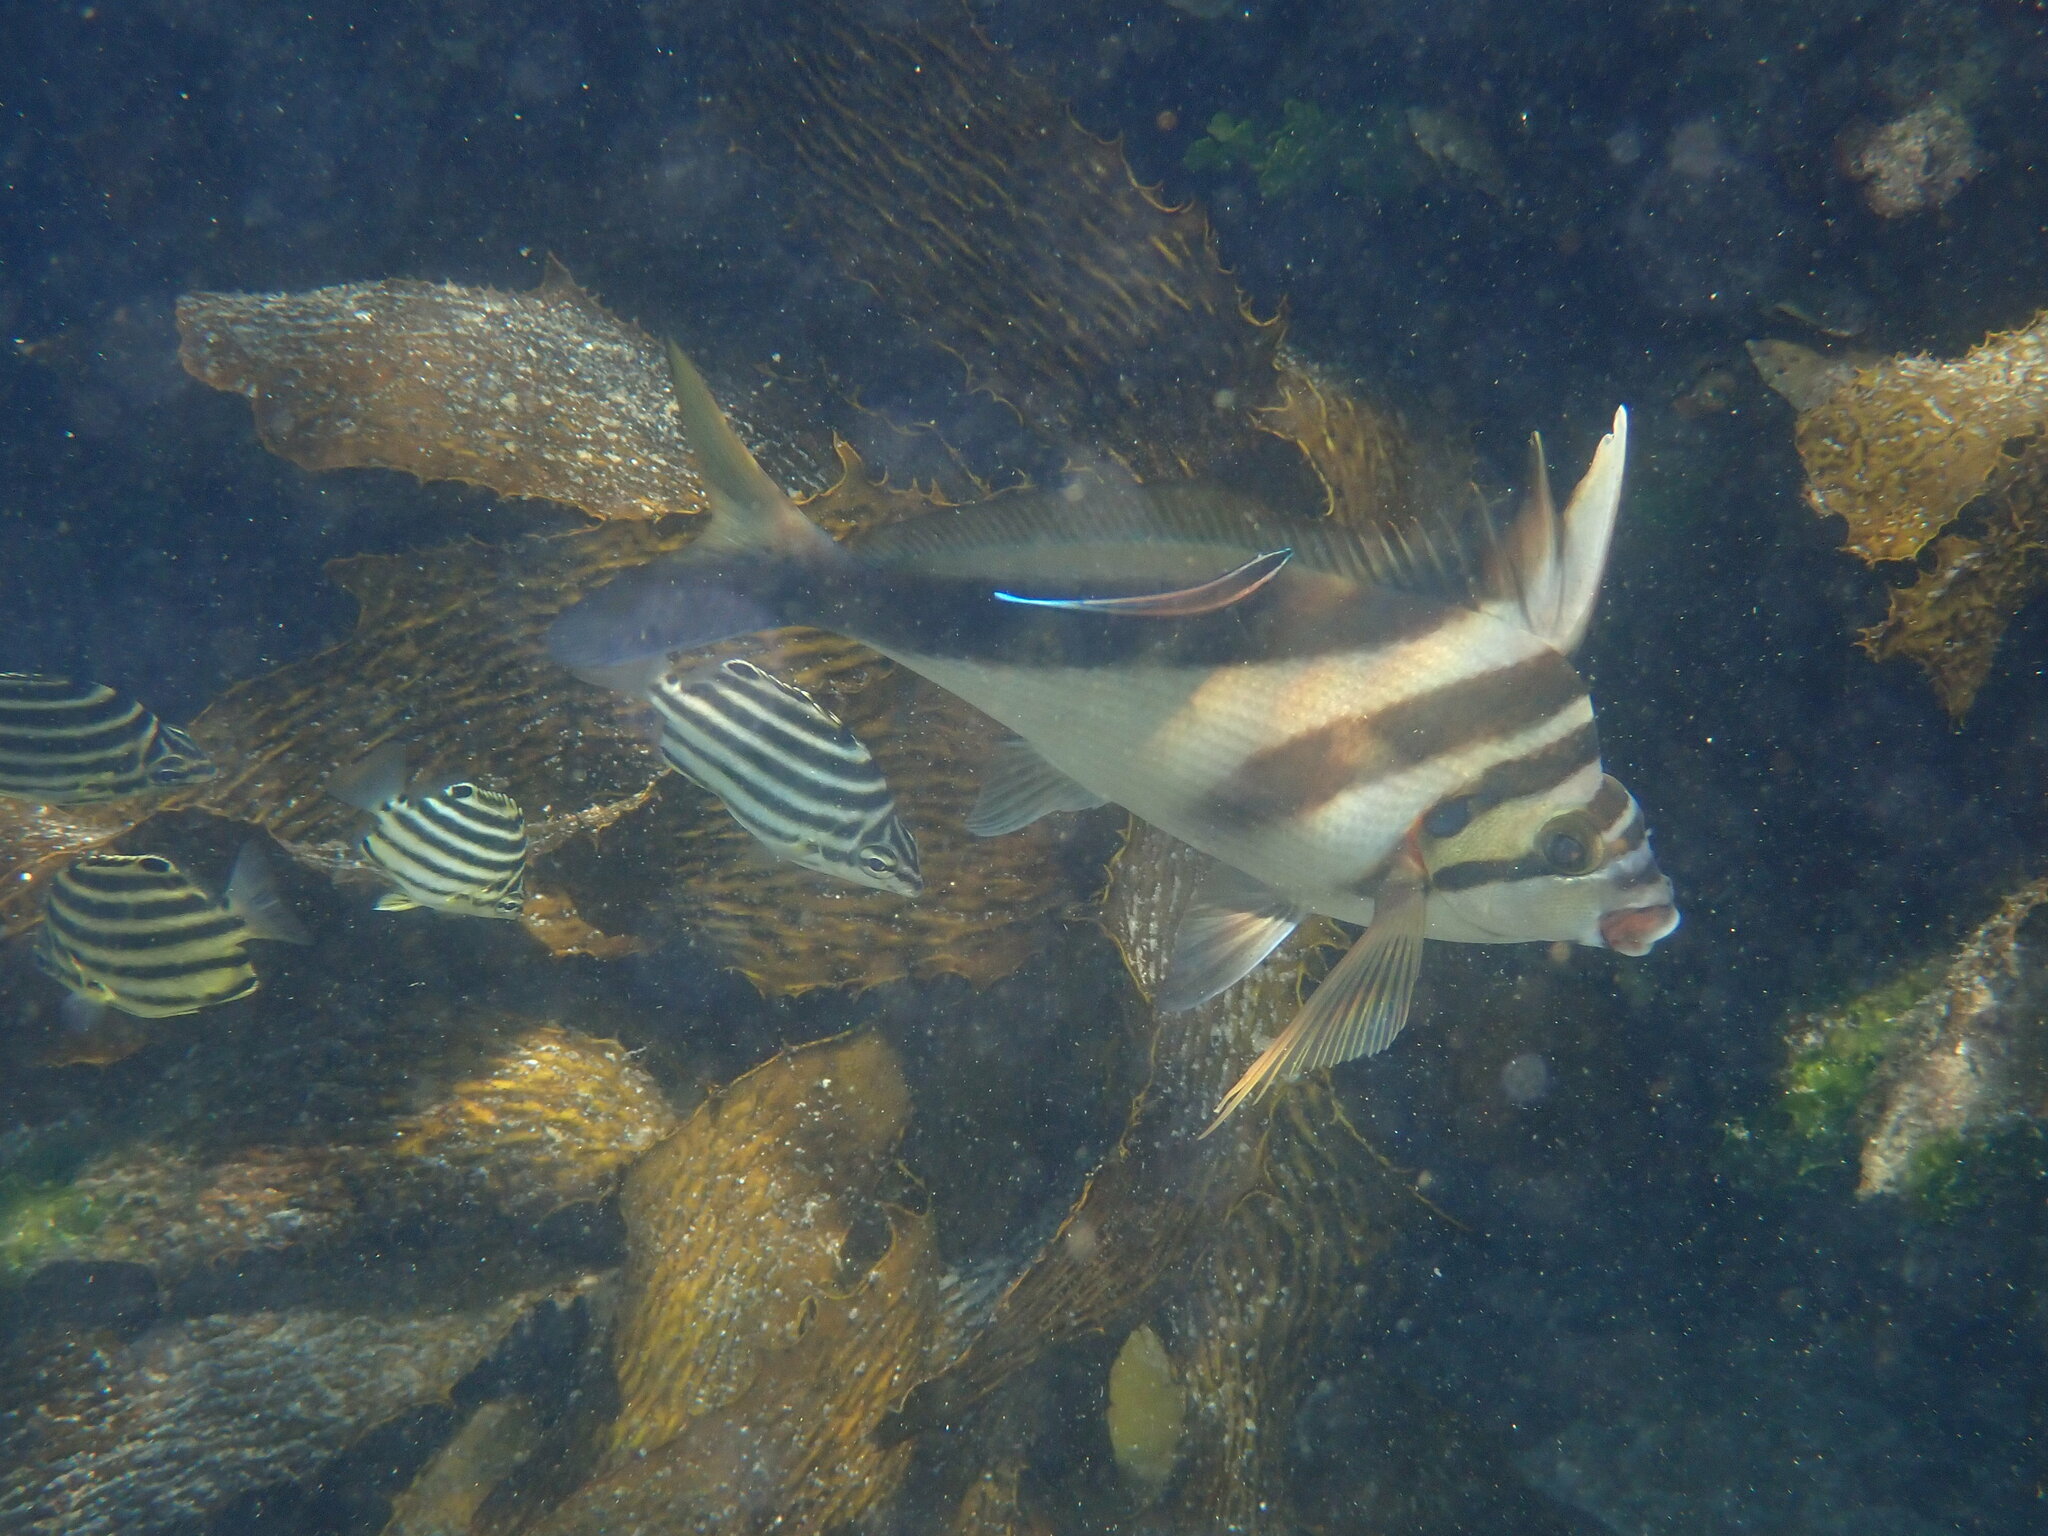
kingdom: Animalia
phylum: Chordata
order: Perciformes
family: Cheilodactylidae
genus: Cheilodactylus
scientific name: Cheilodactylus vestitus
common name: Crested morwong
